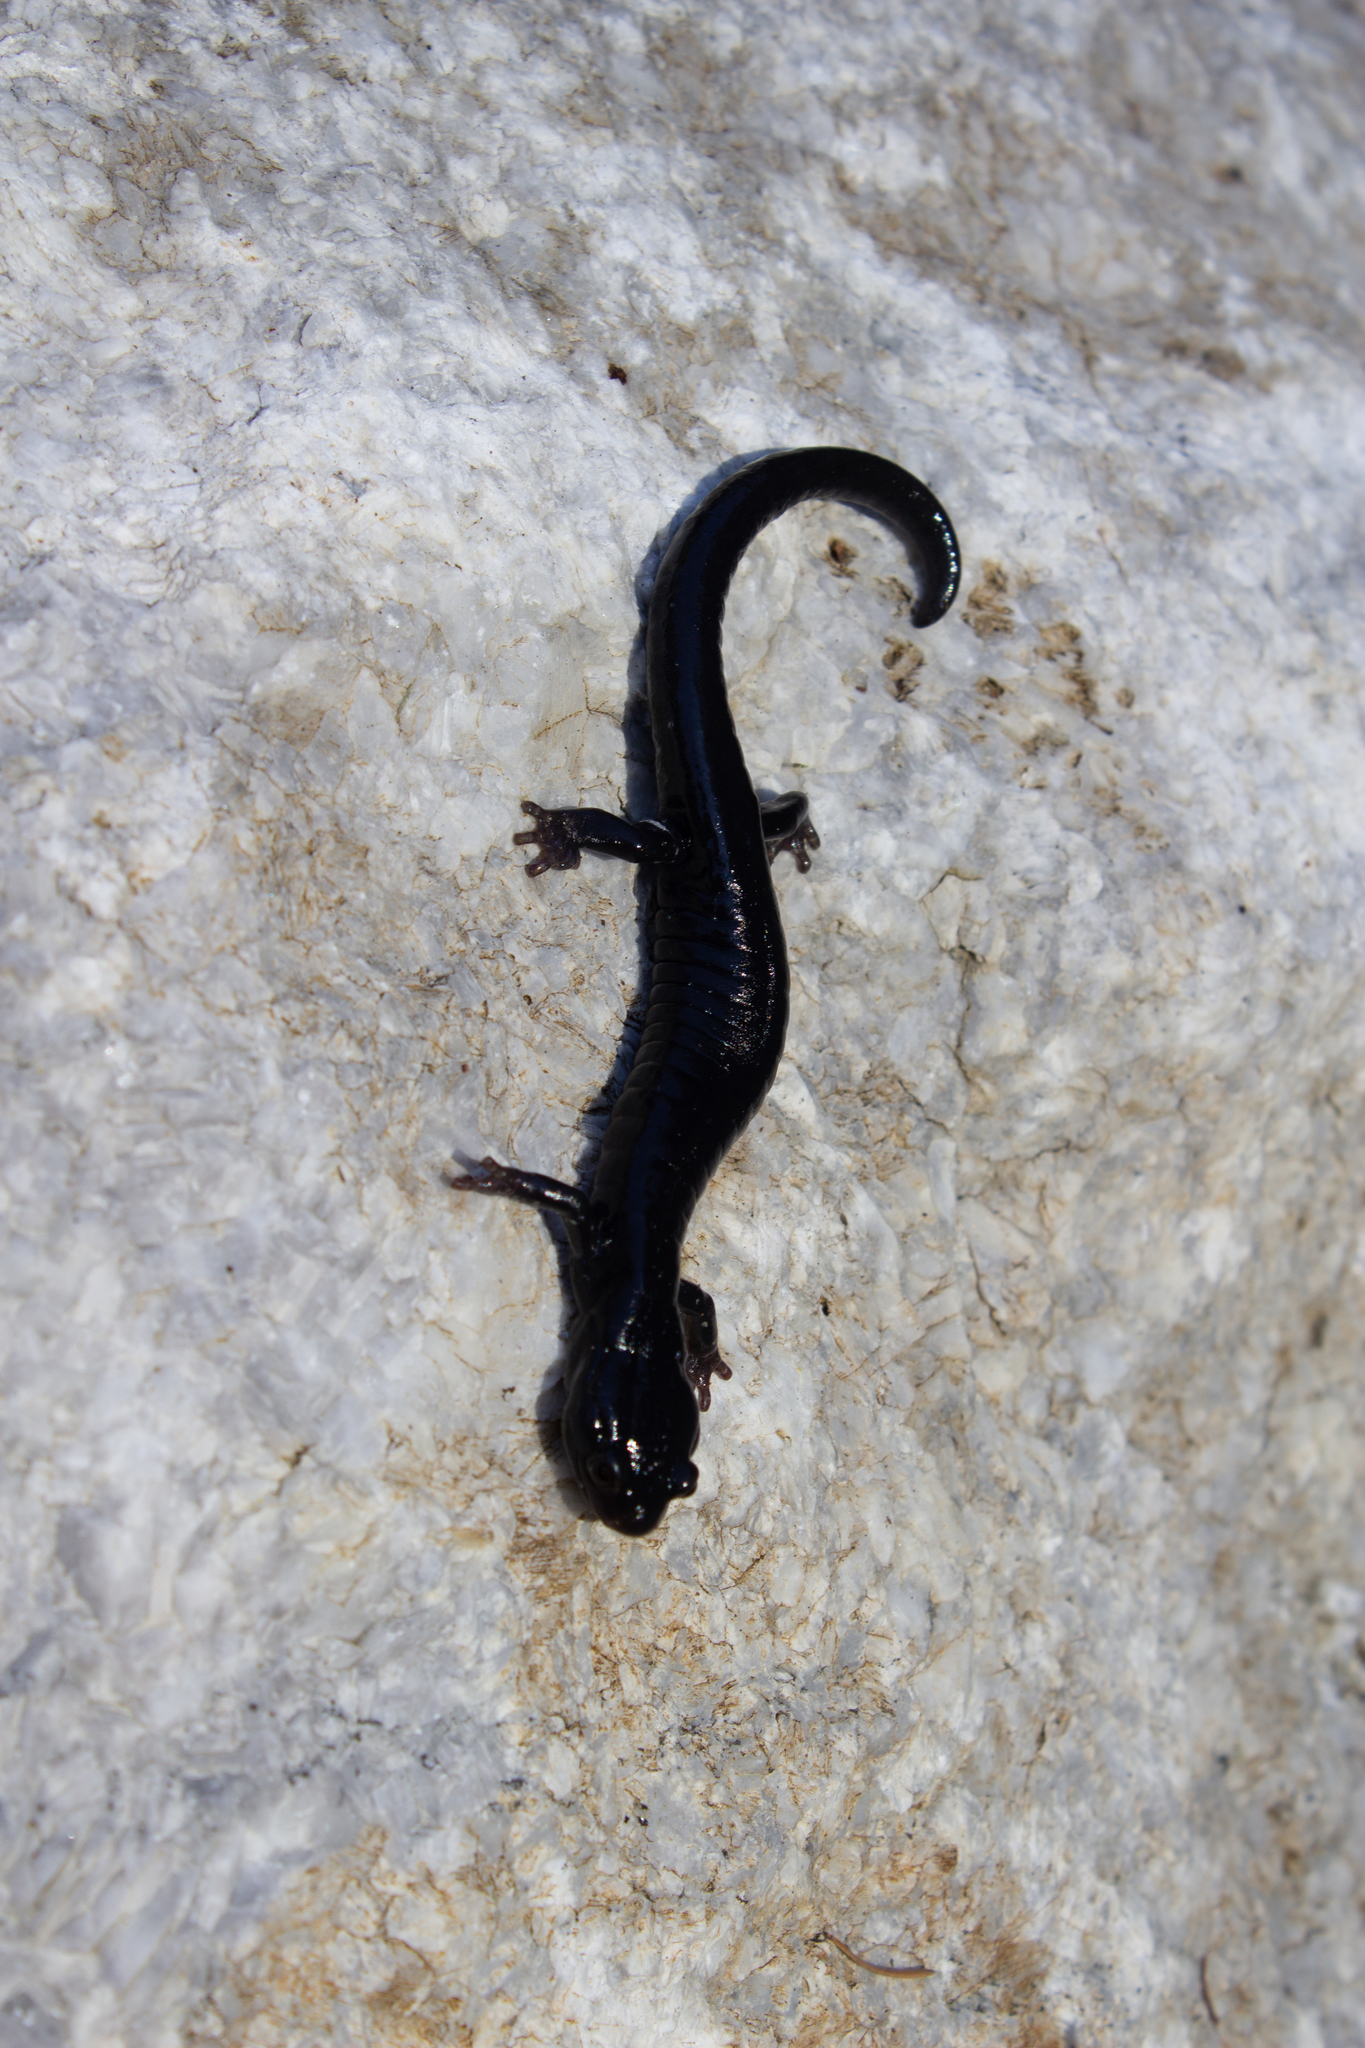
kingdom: Animalia
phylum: Chordata
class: Amphibia
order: Caudata
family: Plethodontidae
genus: Aneides
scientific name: Aneides niger
